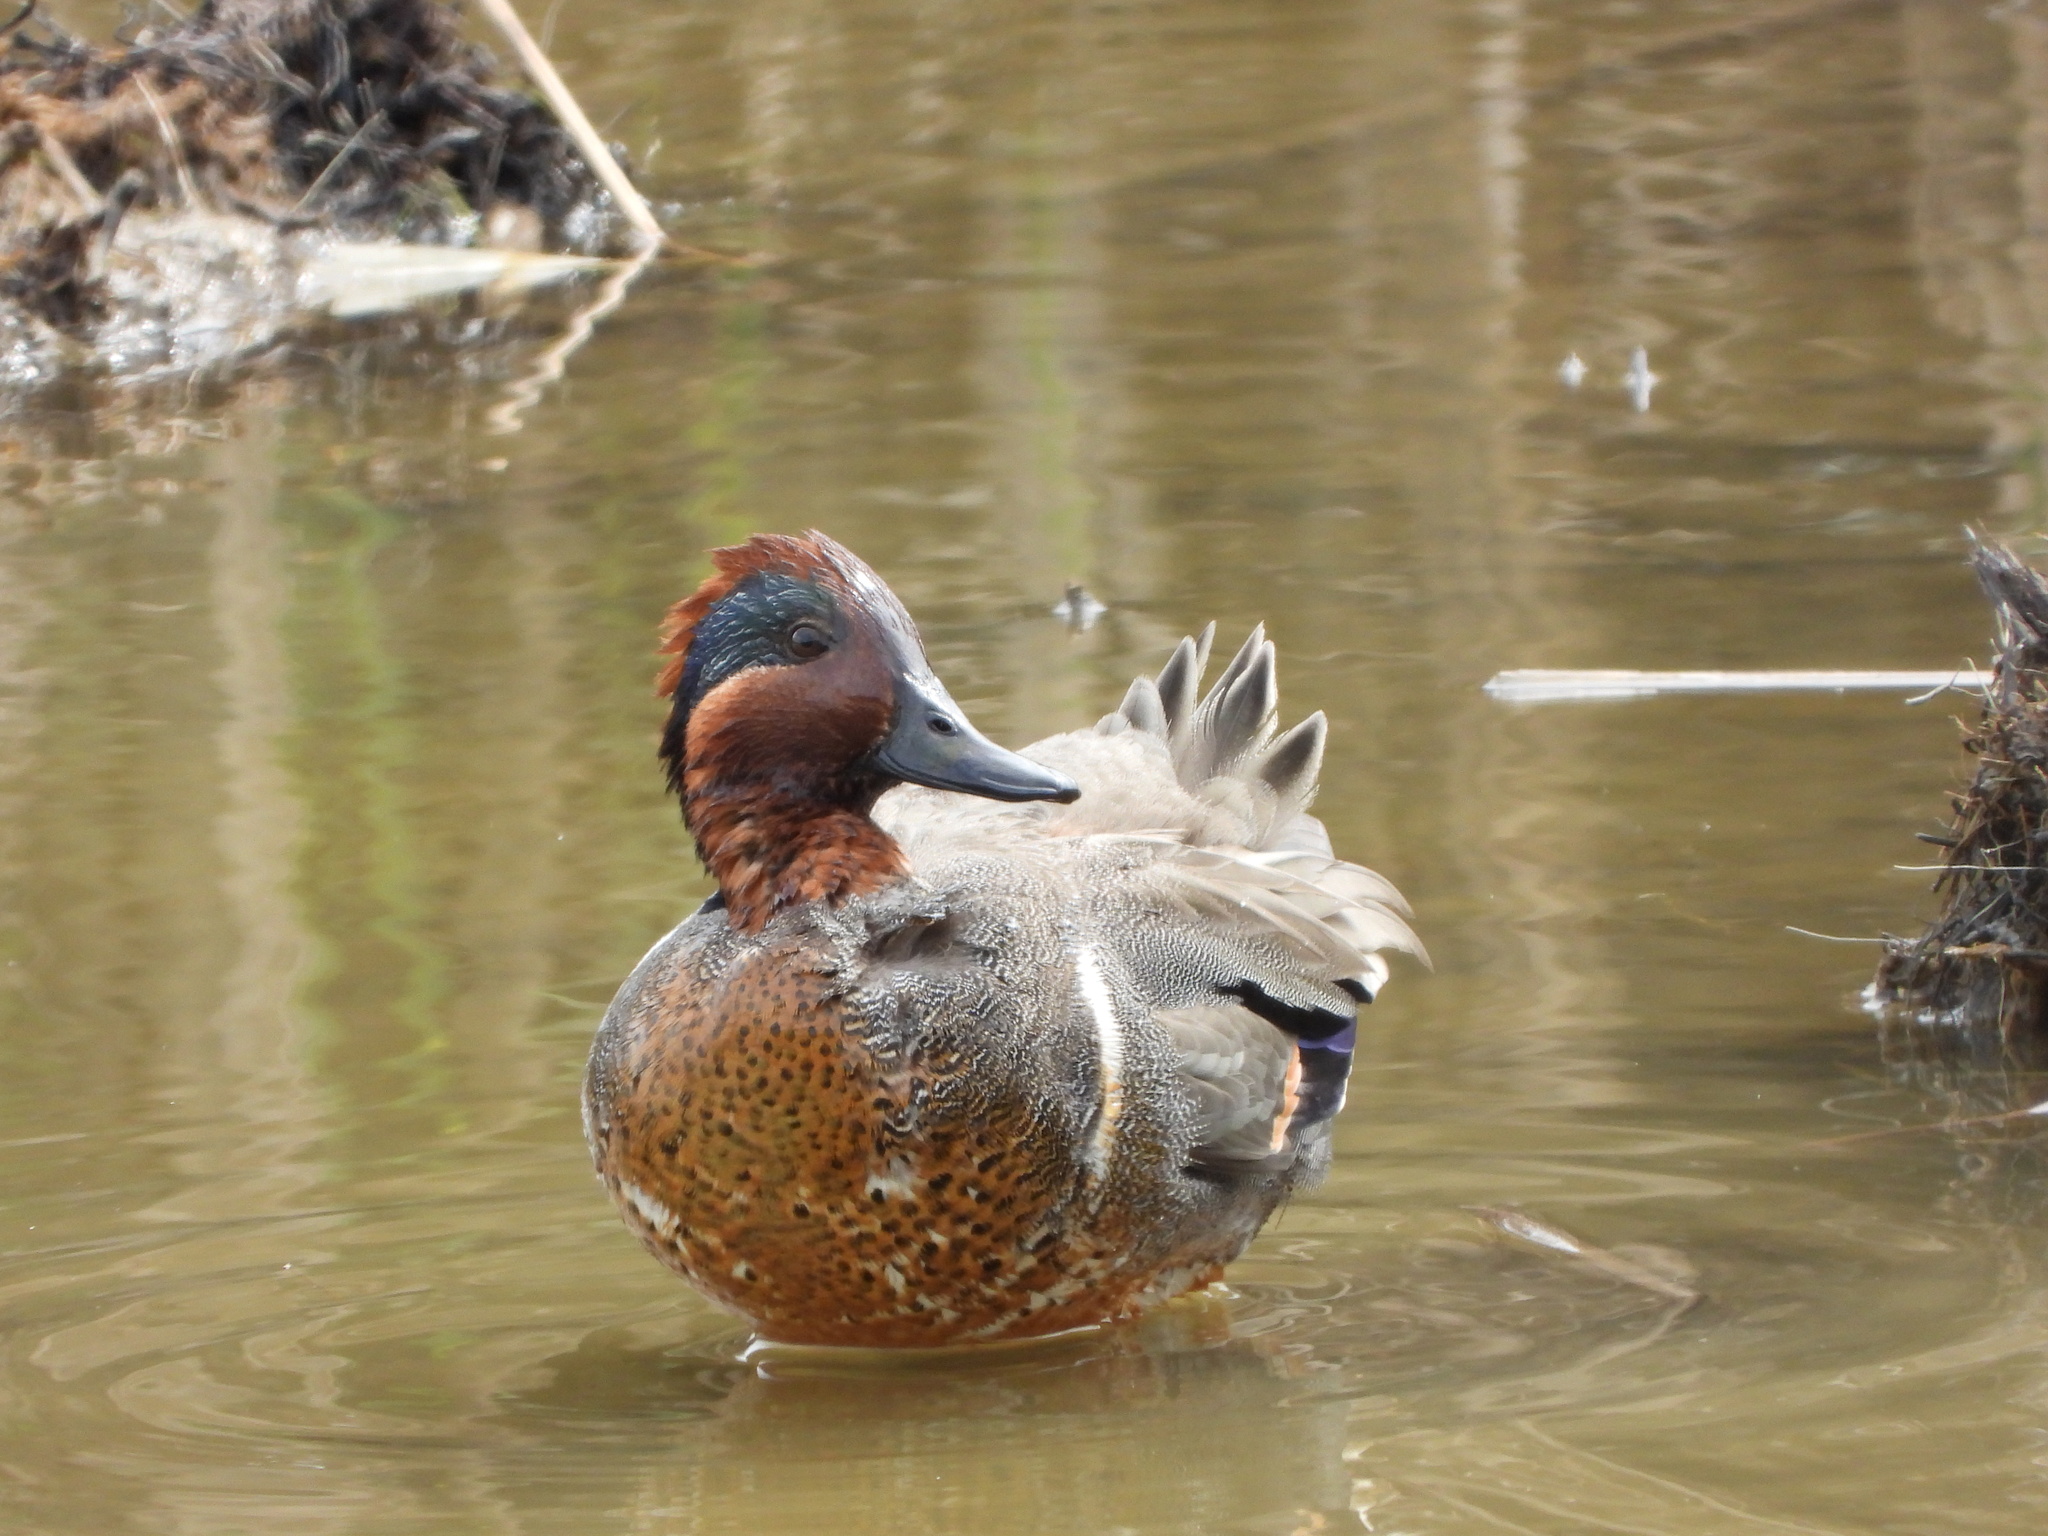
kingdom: Animalia
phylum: Chordata
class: Aves
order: Anseriformes
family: Anatidae
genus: Anas
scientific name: Anas carolinensis
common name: Green-winged teal
